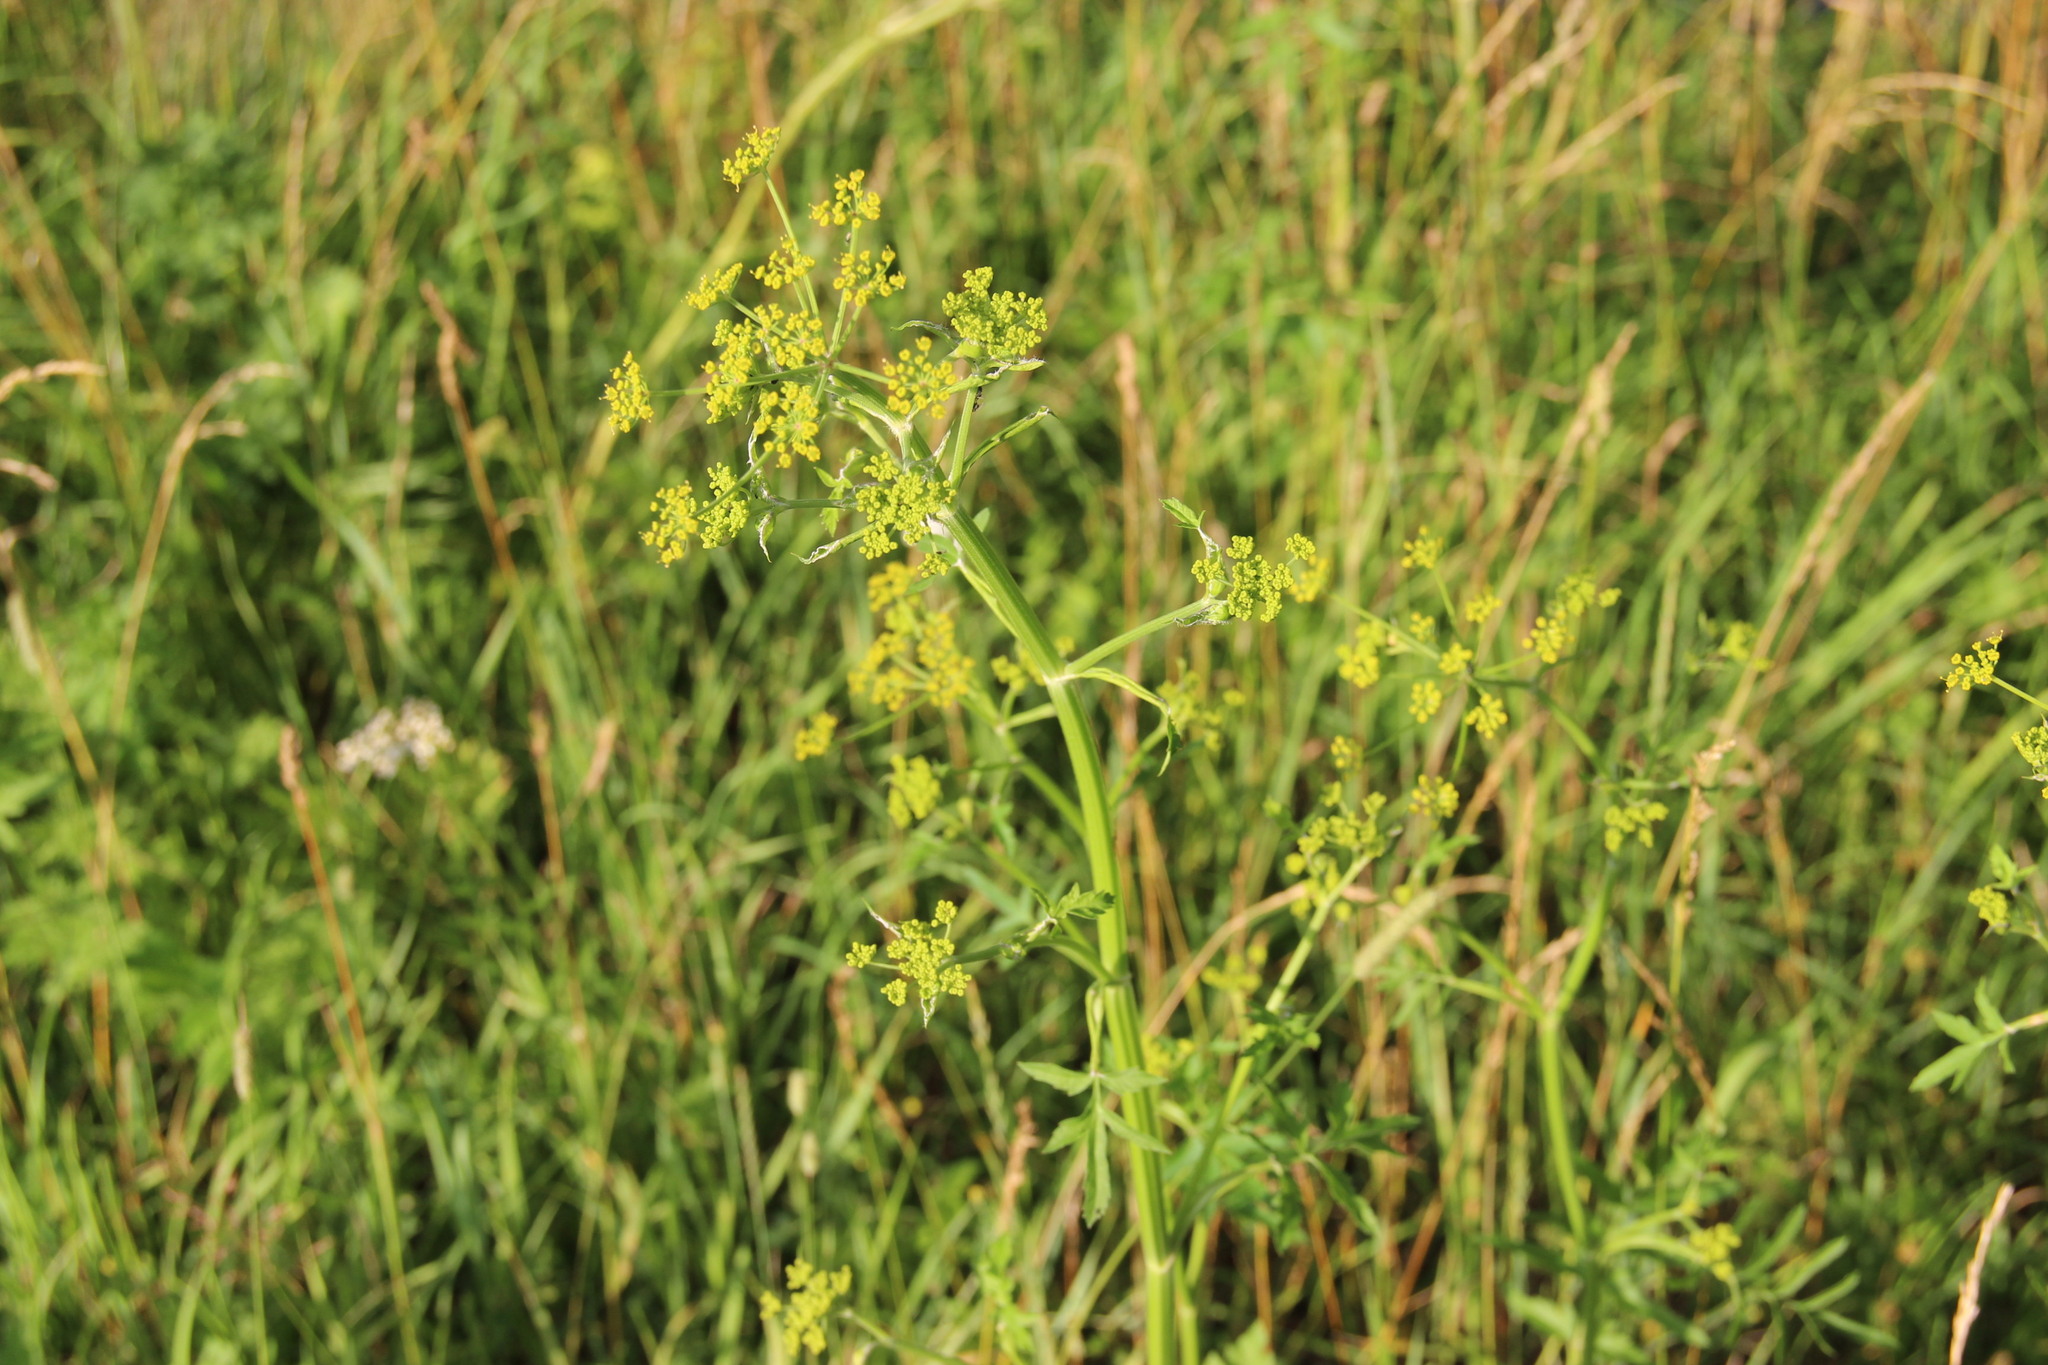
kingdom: Plantae
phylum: Tracheophyta
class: Magnoliopsida
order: Apiales
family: Apiaceae
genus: Pastinaca
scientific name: Pastinaca sativa
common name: Wild parsnip
